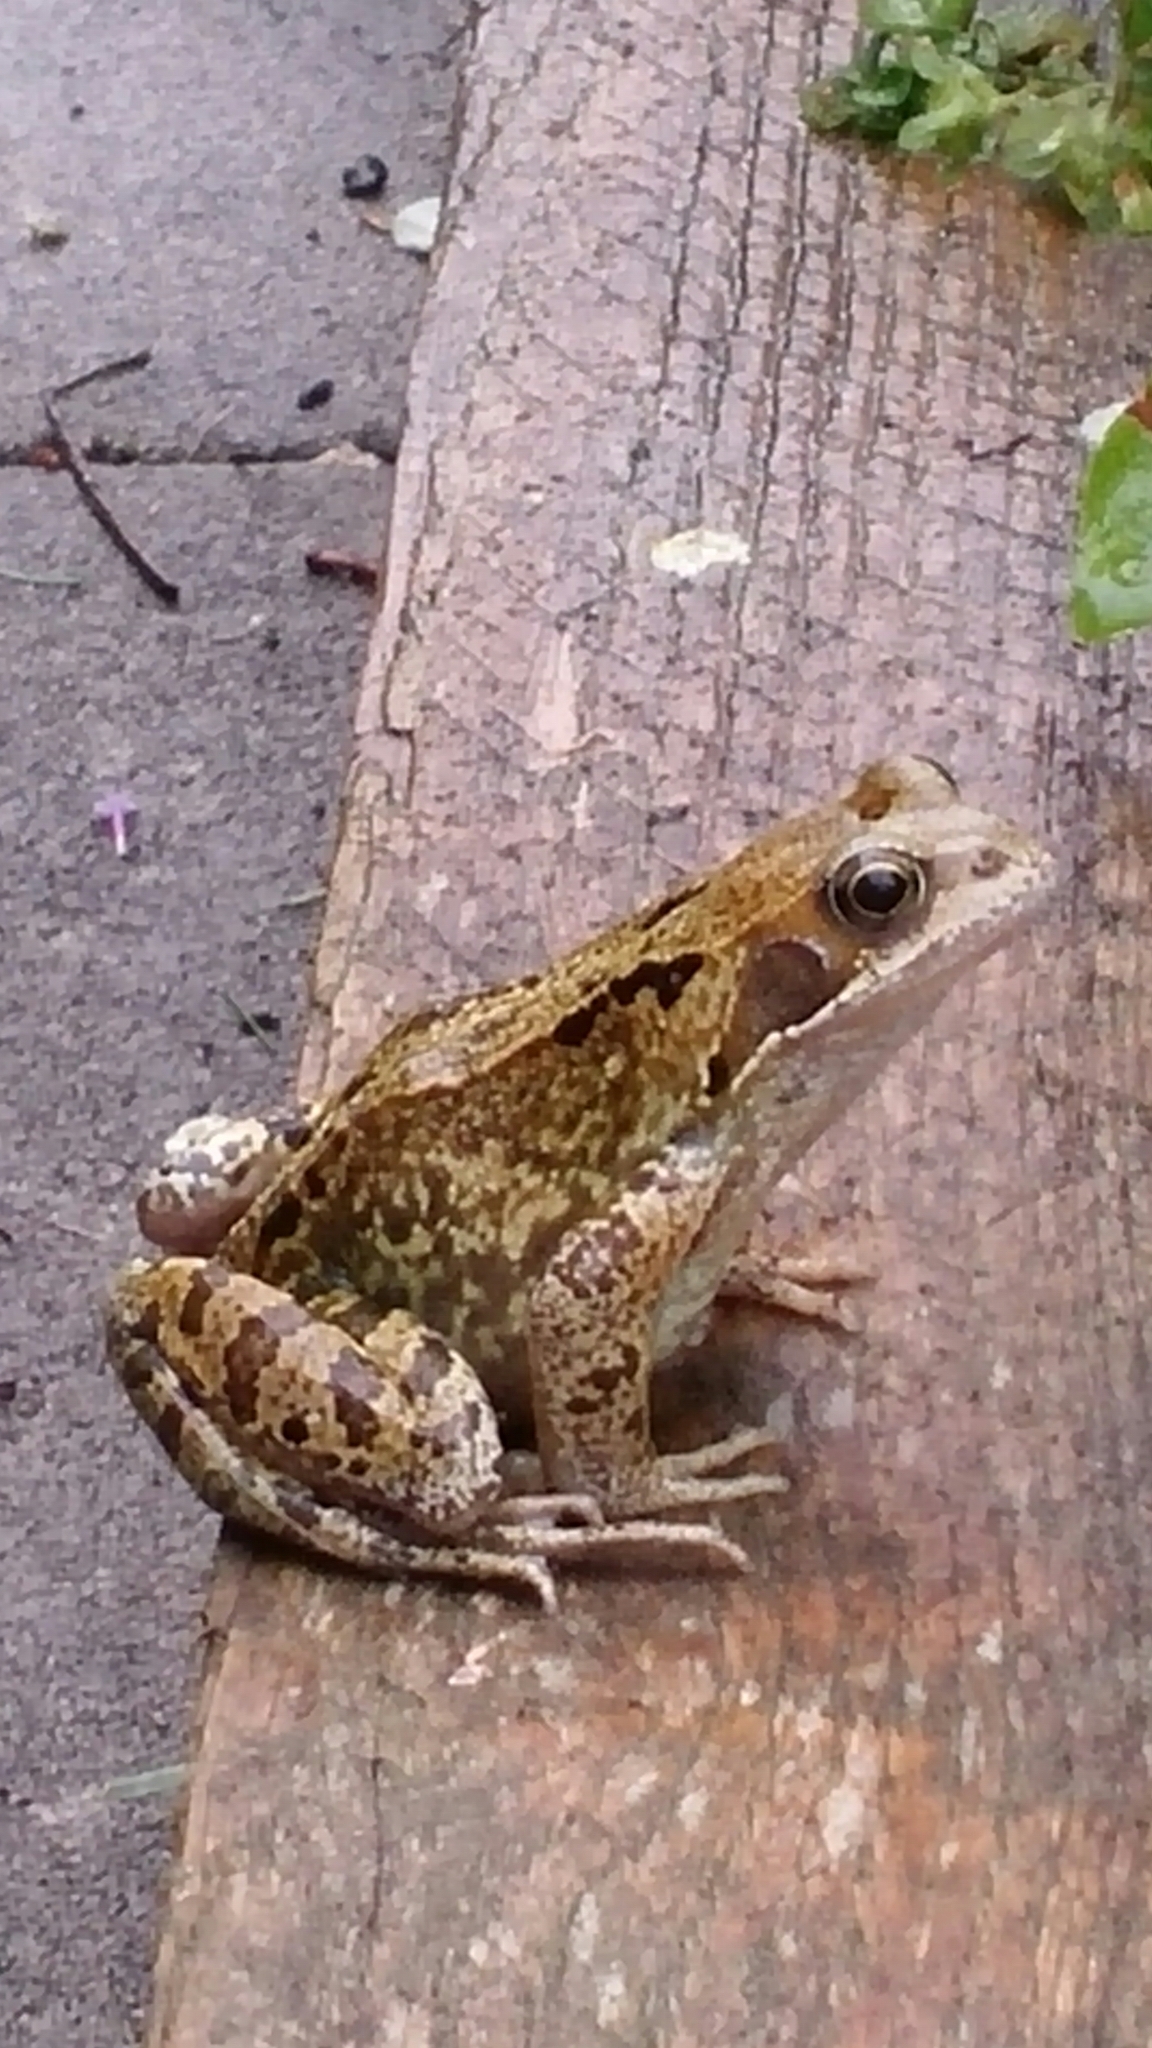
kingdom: Animalia
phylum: Chordata
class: Amphibia
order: Anura
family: Ranidae
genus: Rana
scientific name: Rana temporaria
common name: Common frog
